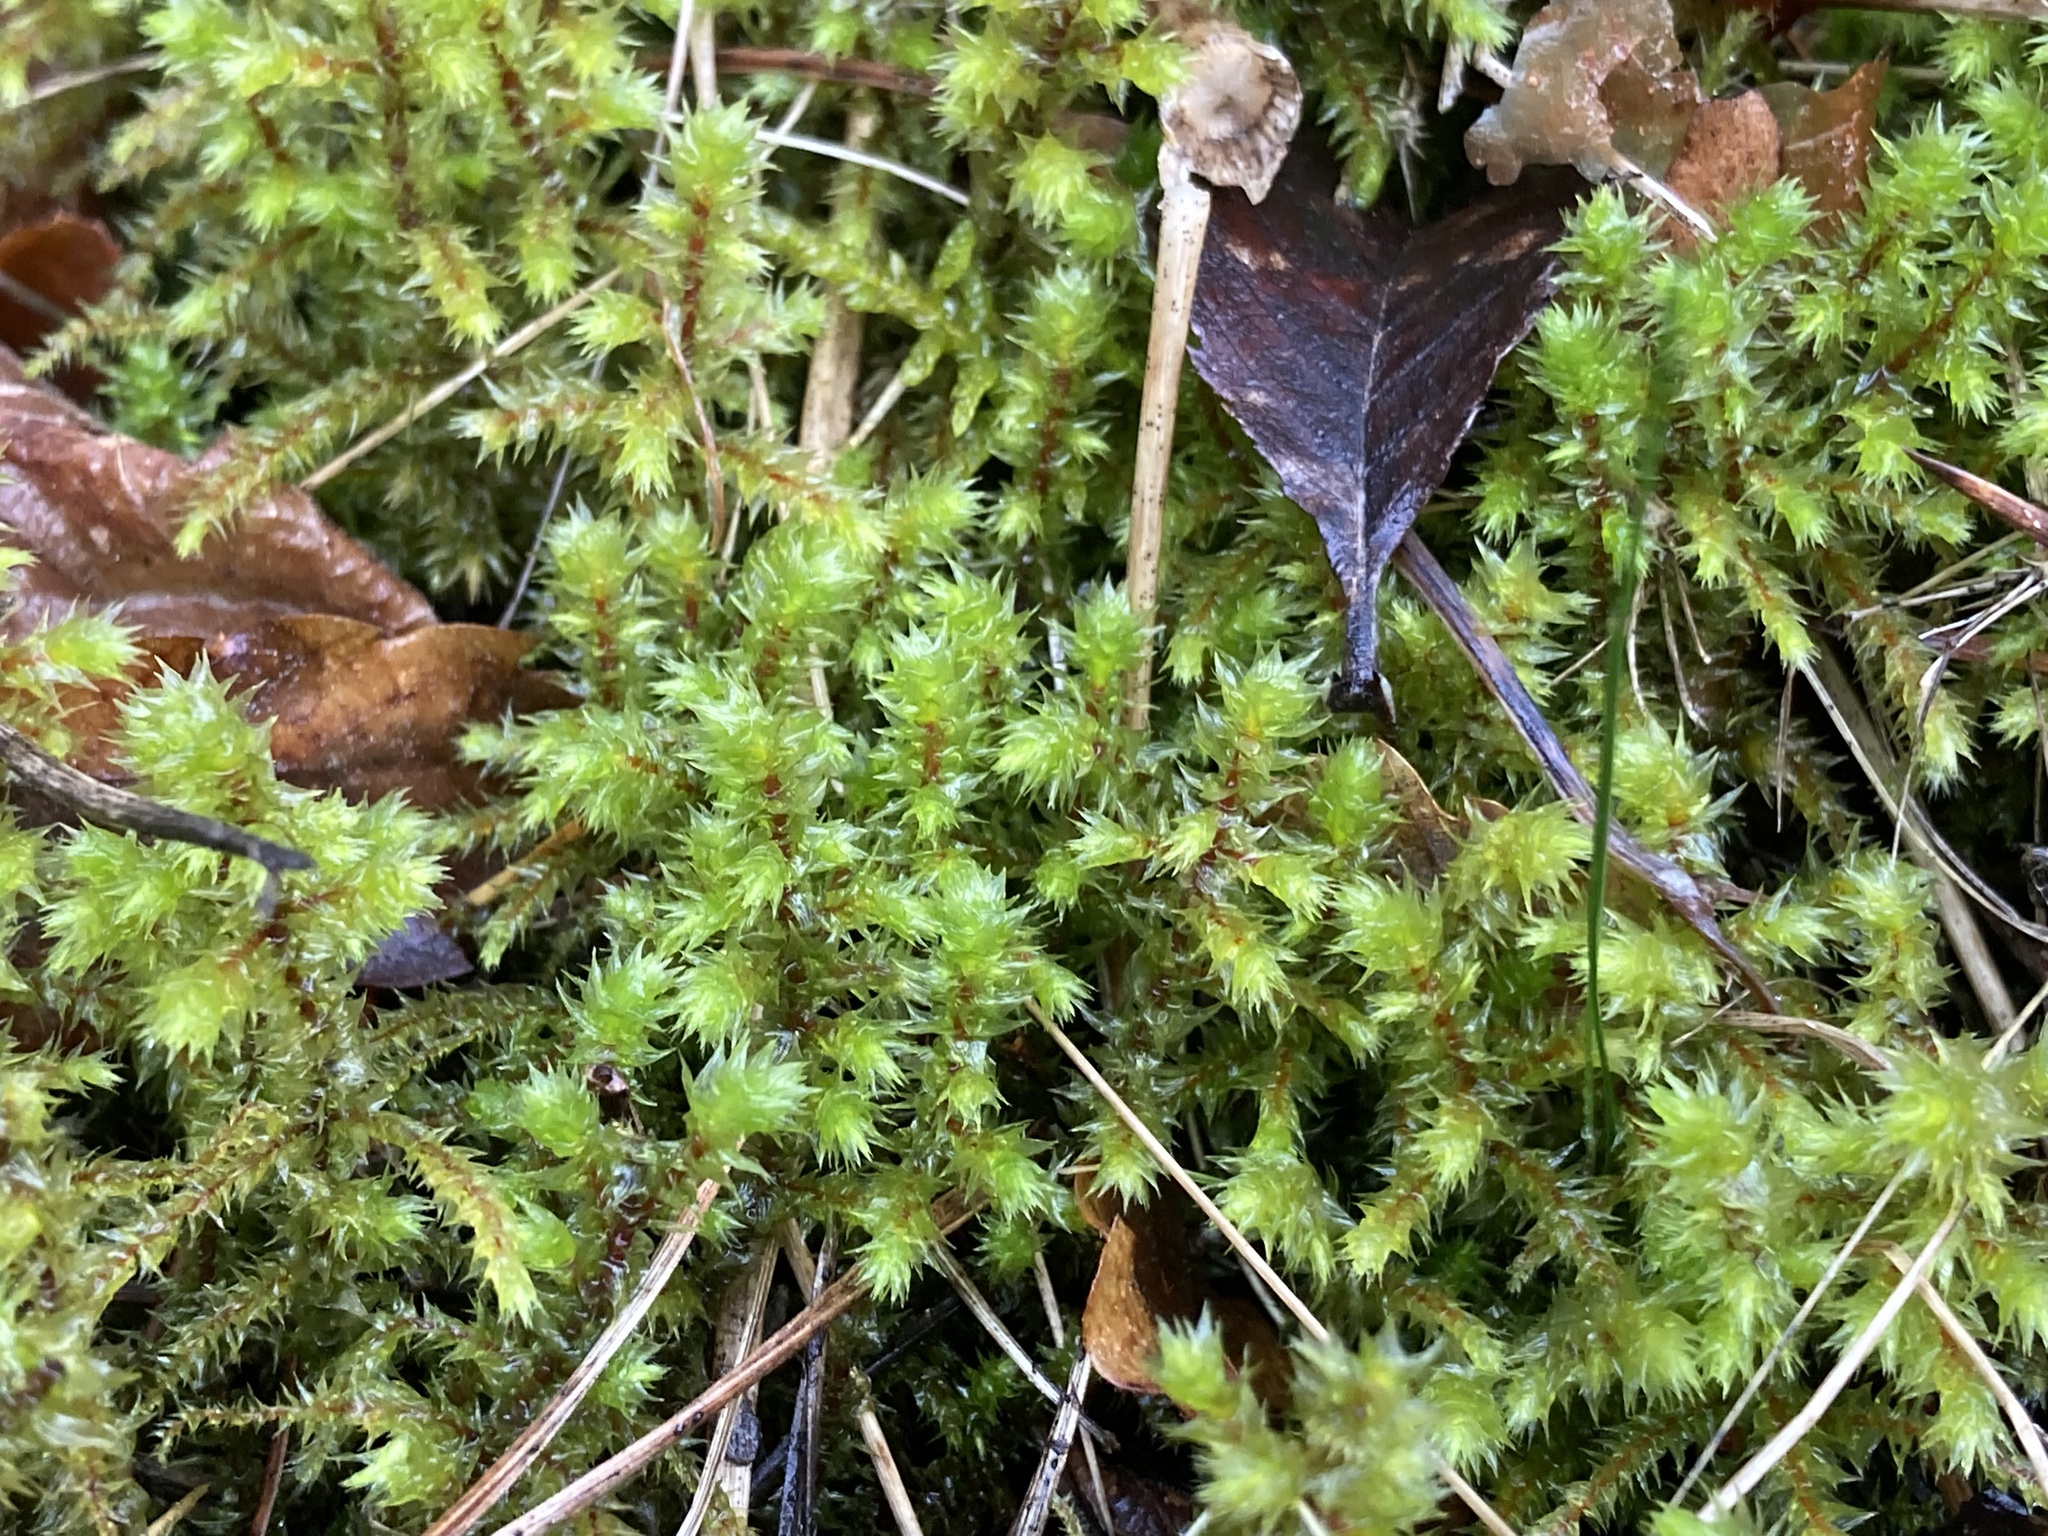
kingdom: Plantae
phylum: Bryophyta
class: Bryopsida
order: Hypnales
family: Hylocomiaceae
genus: Hylocomiadelphus
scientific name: Hylocomiadelphus triquetrus
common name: Rough goose neck moss
